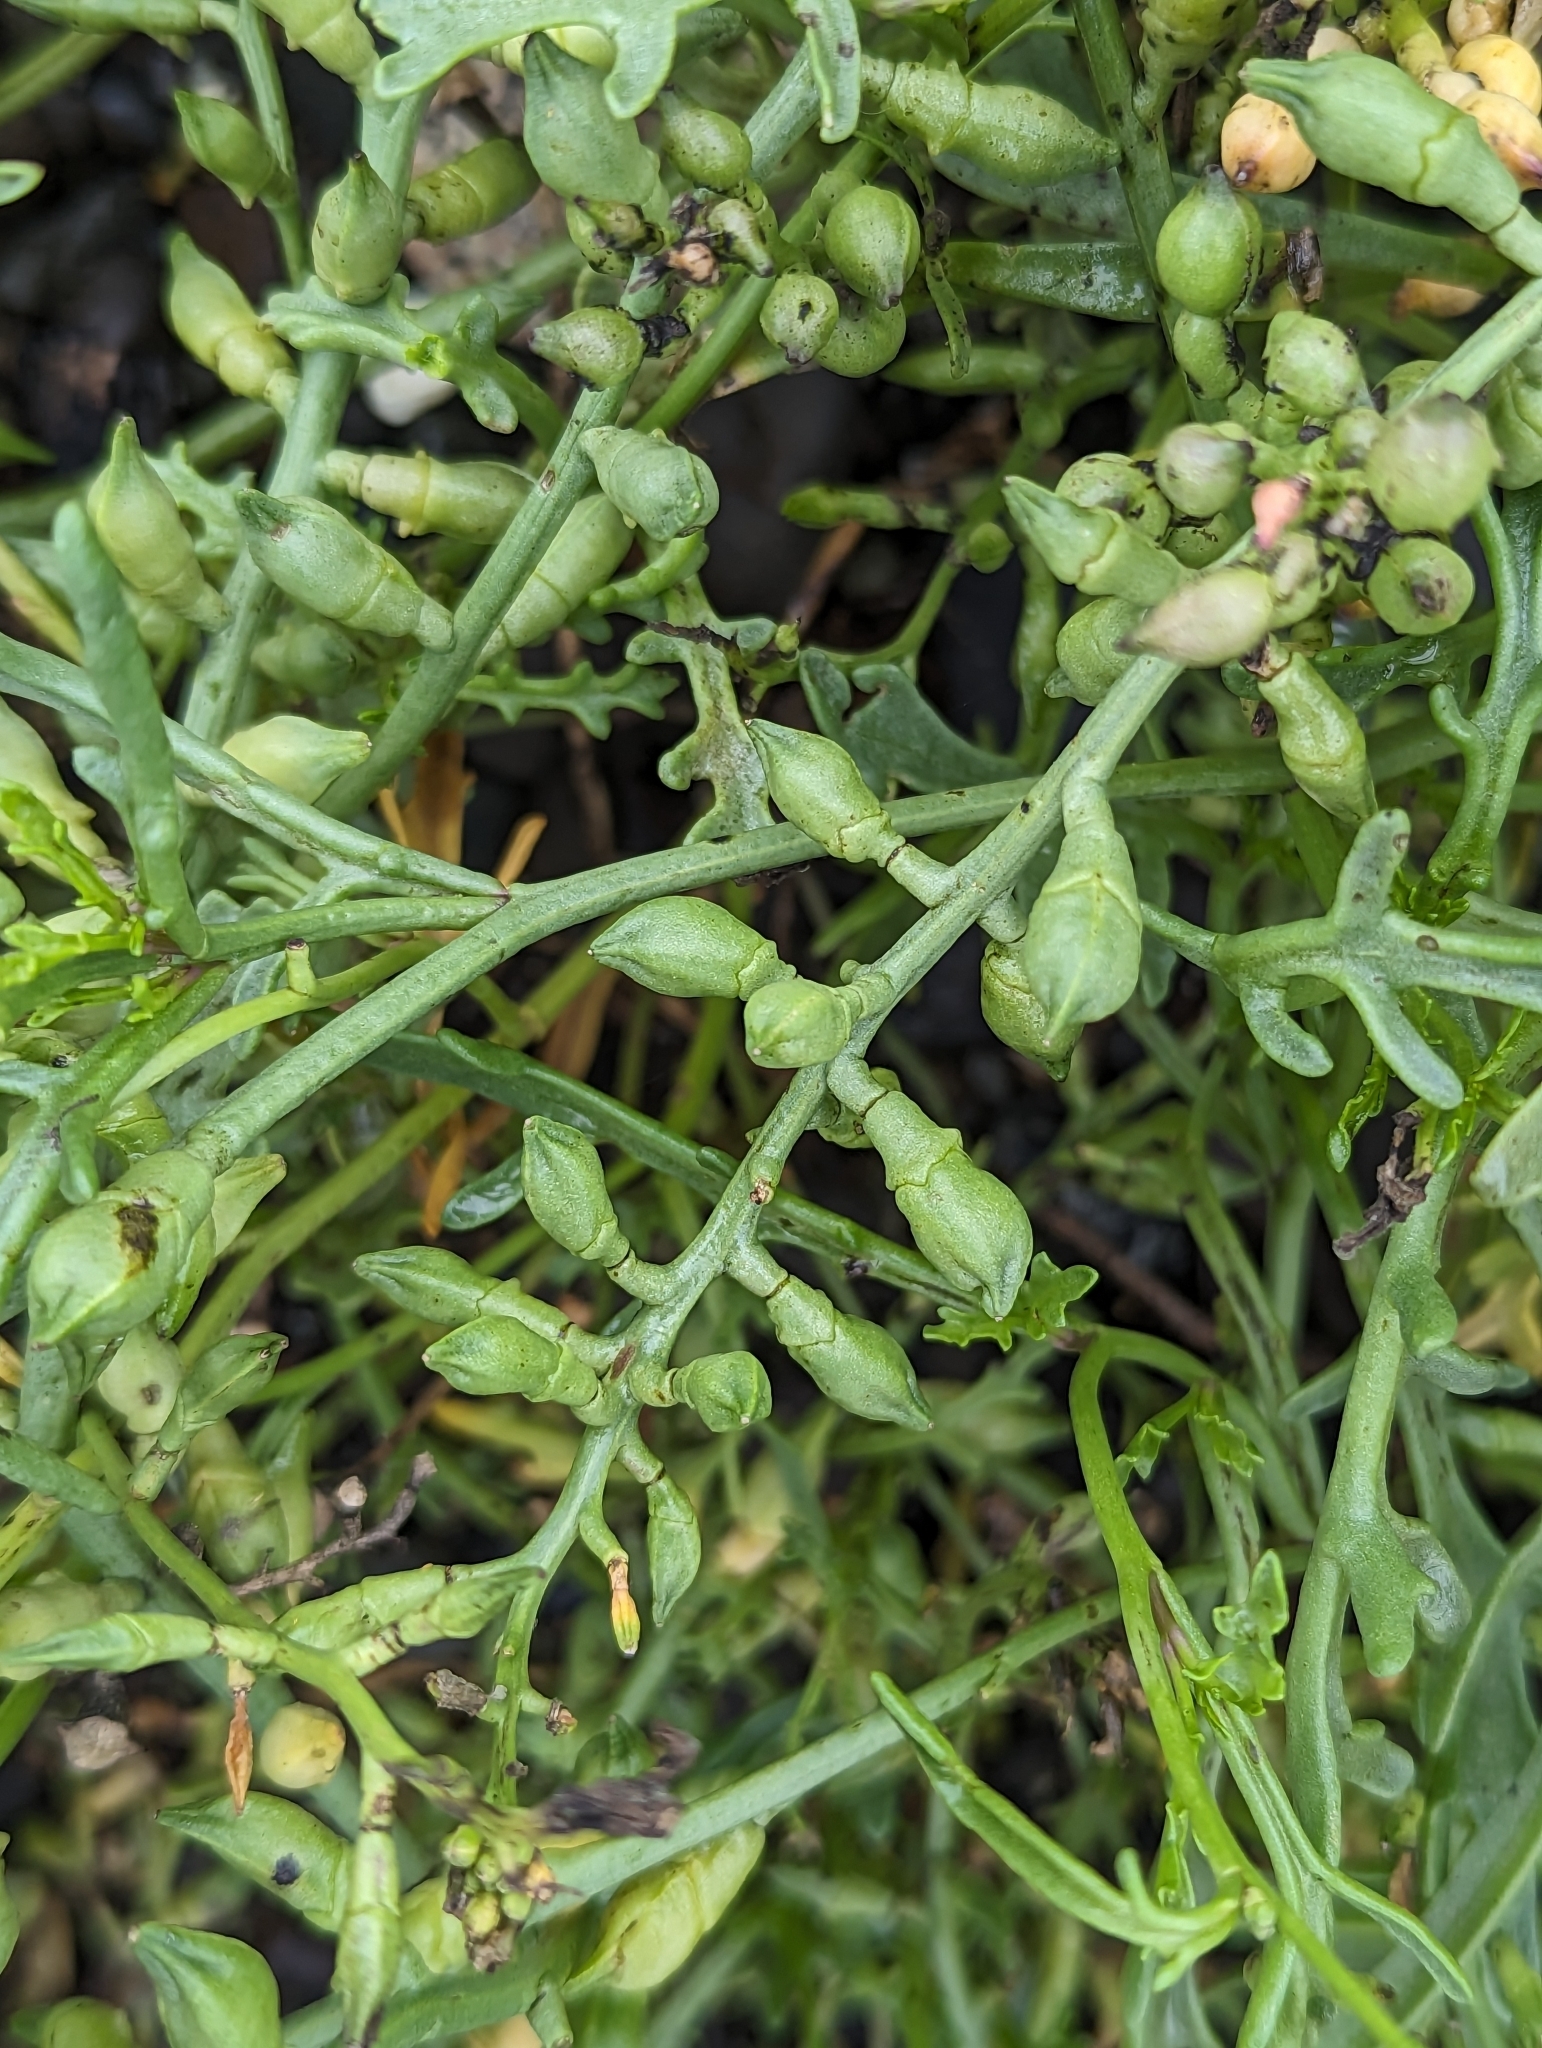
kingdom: Plantae
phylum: Tracheophyta
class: Magnoliopsida
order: Brassicales
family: Brassicaceae
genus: Cakile
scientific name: Cakile maritima
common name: Sea rocket
